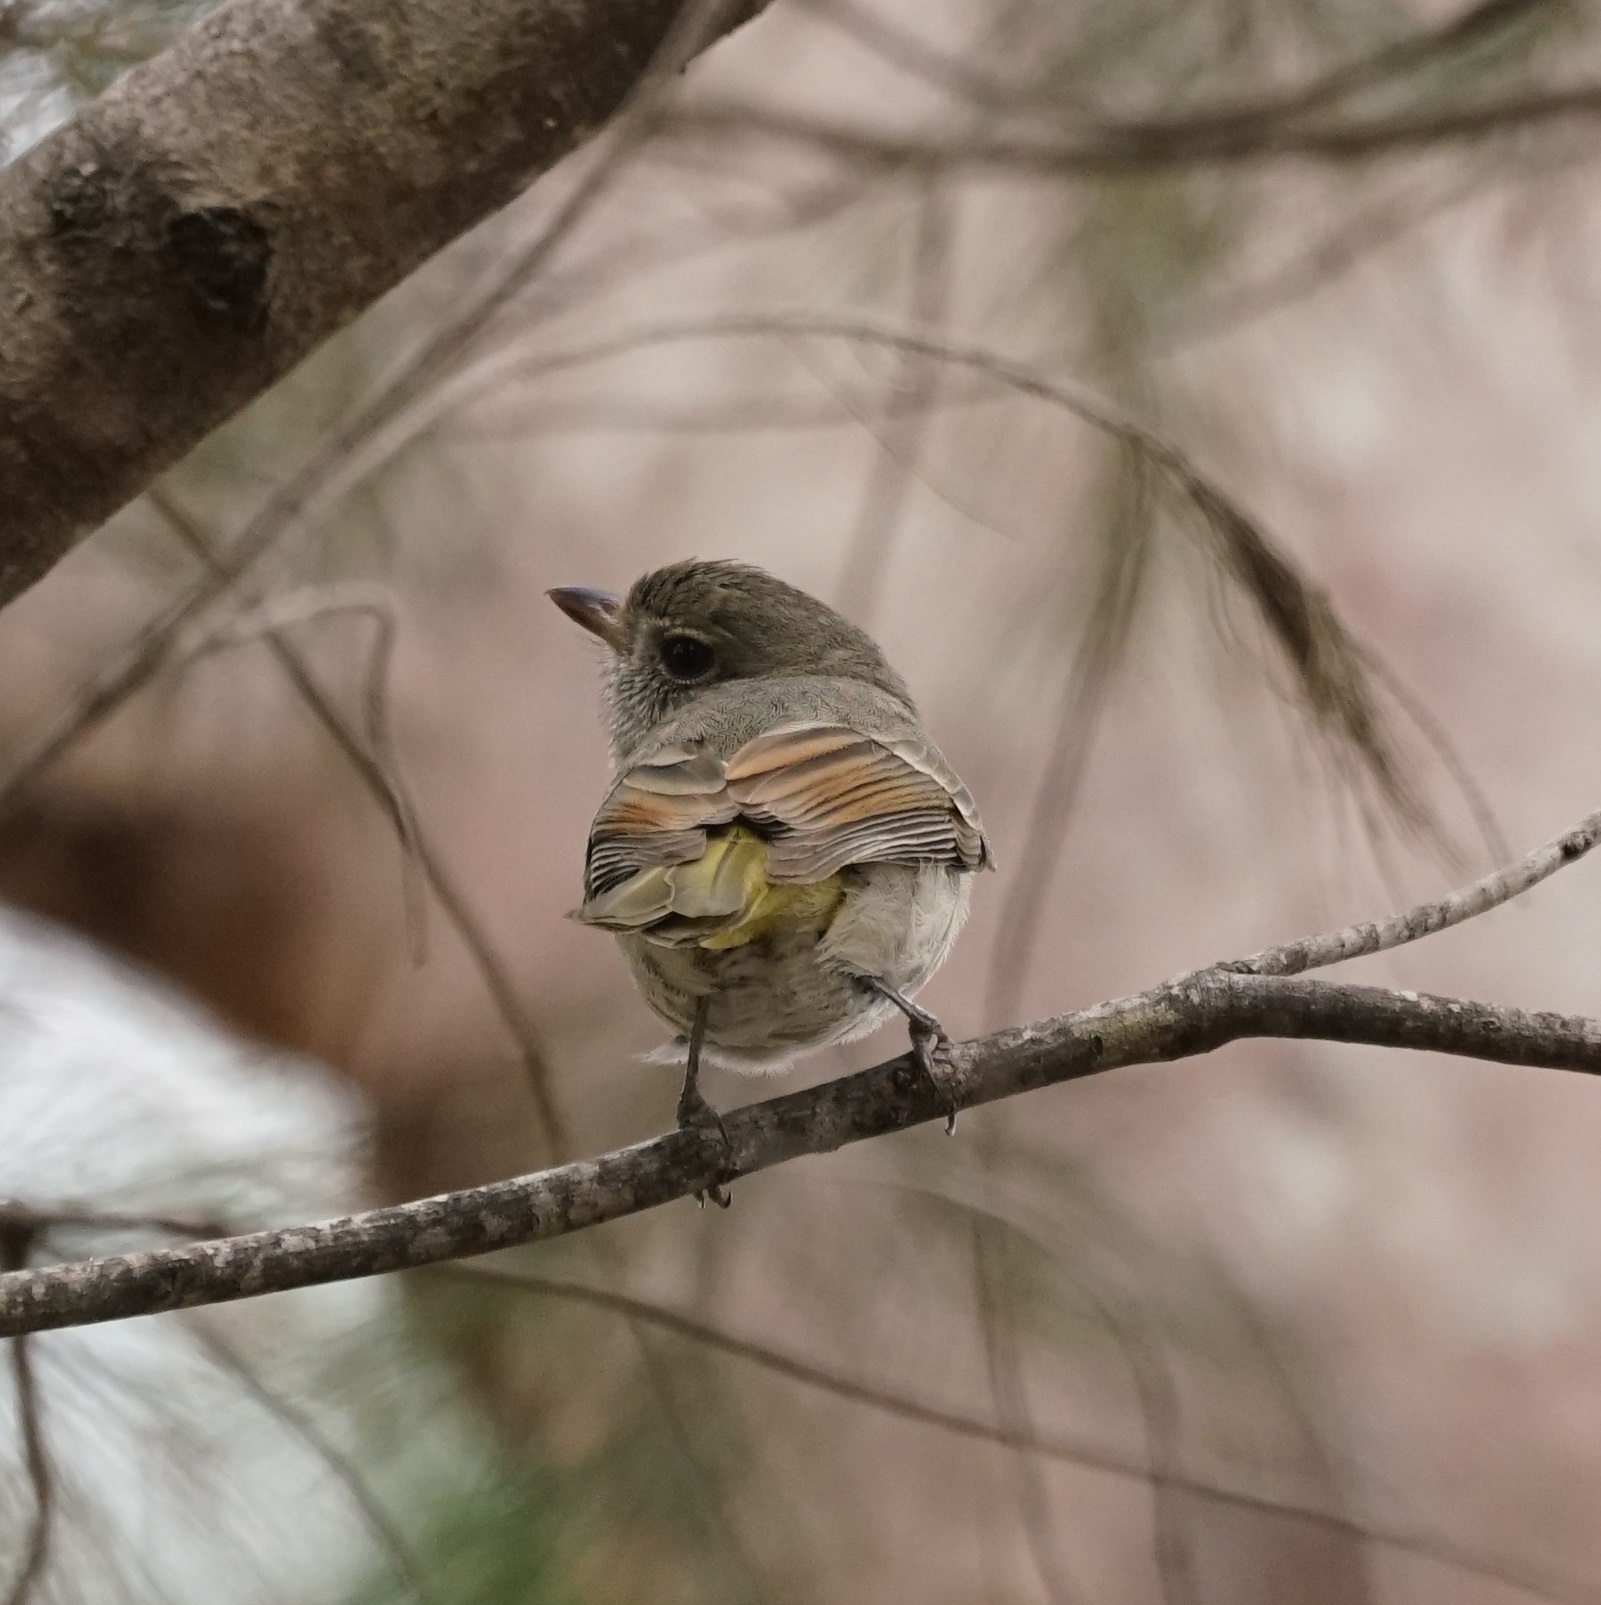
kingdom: Animalia
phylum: Chordata
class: Aves
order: Passeriformes
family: Pachycephalidae
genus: Pachycephala
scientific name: Pachycephala pectoralis
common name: Australian golden whistler
